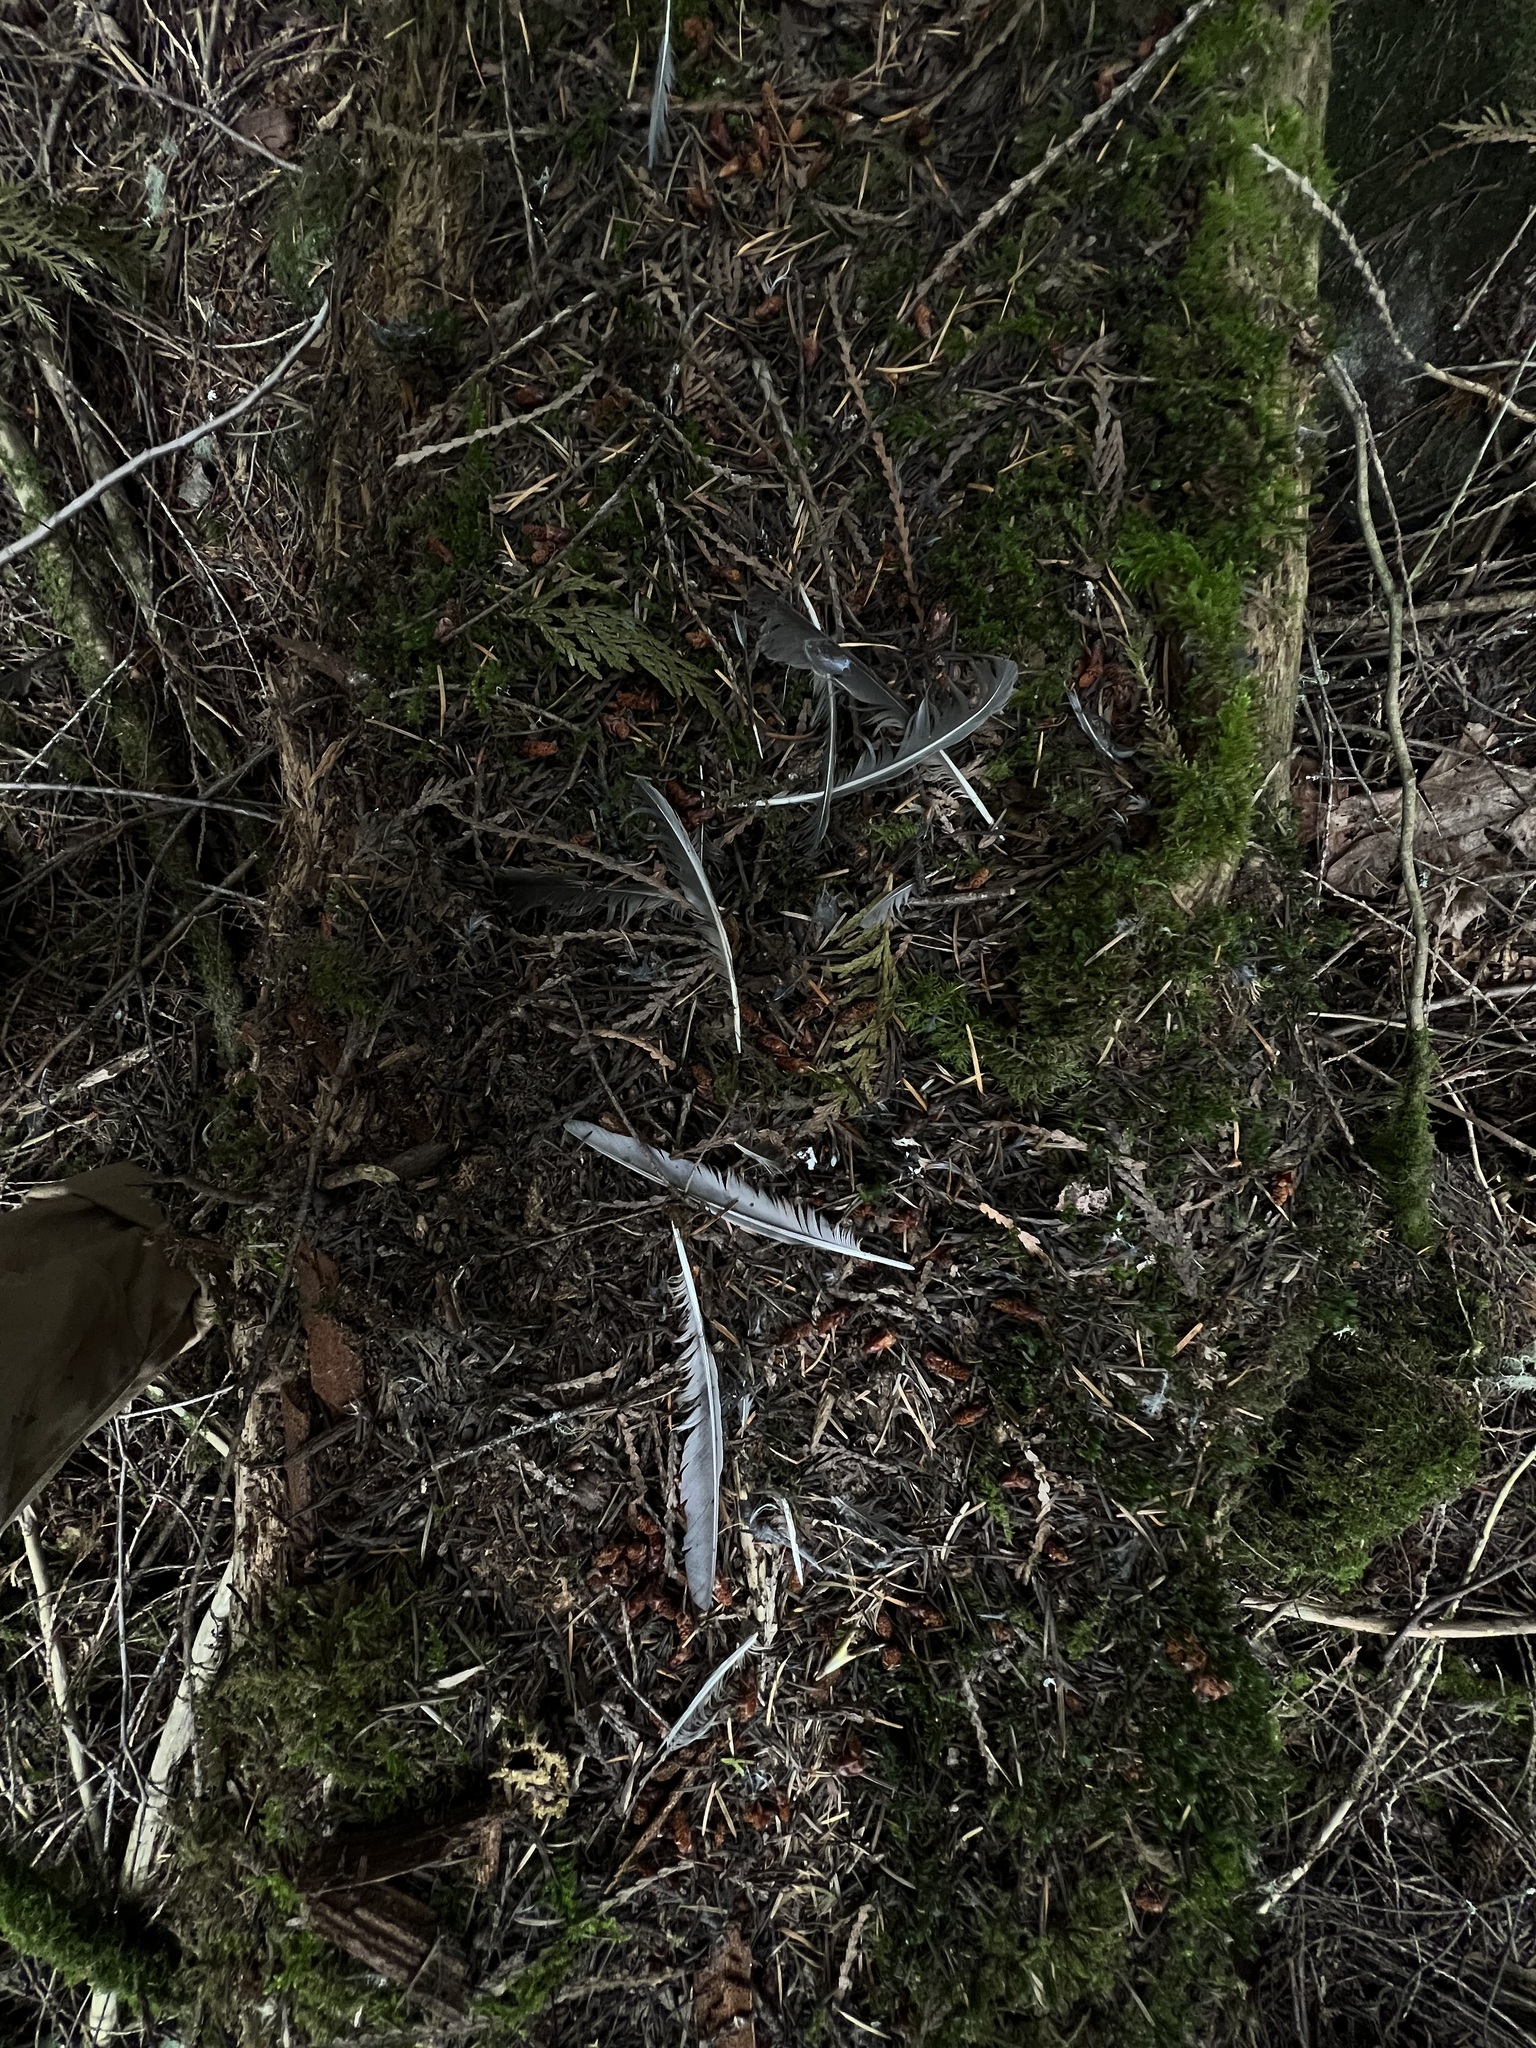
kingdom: Animalia
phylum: Chordata
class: Aves
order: Passeriformes
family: Turdidae
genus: Turdus
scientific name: Turdus migratorius
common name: American robin
